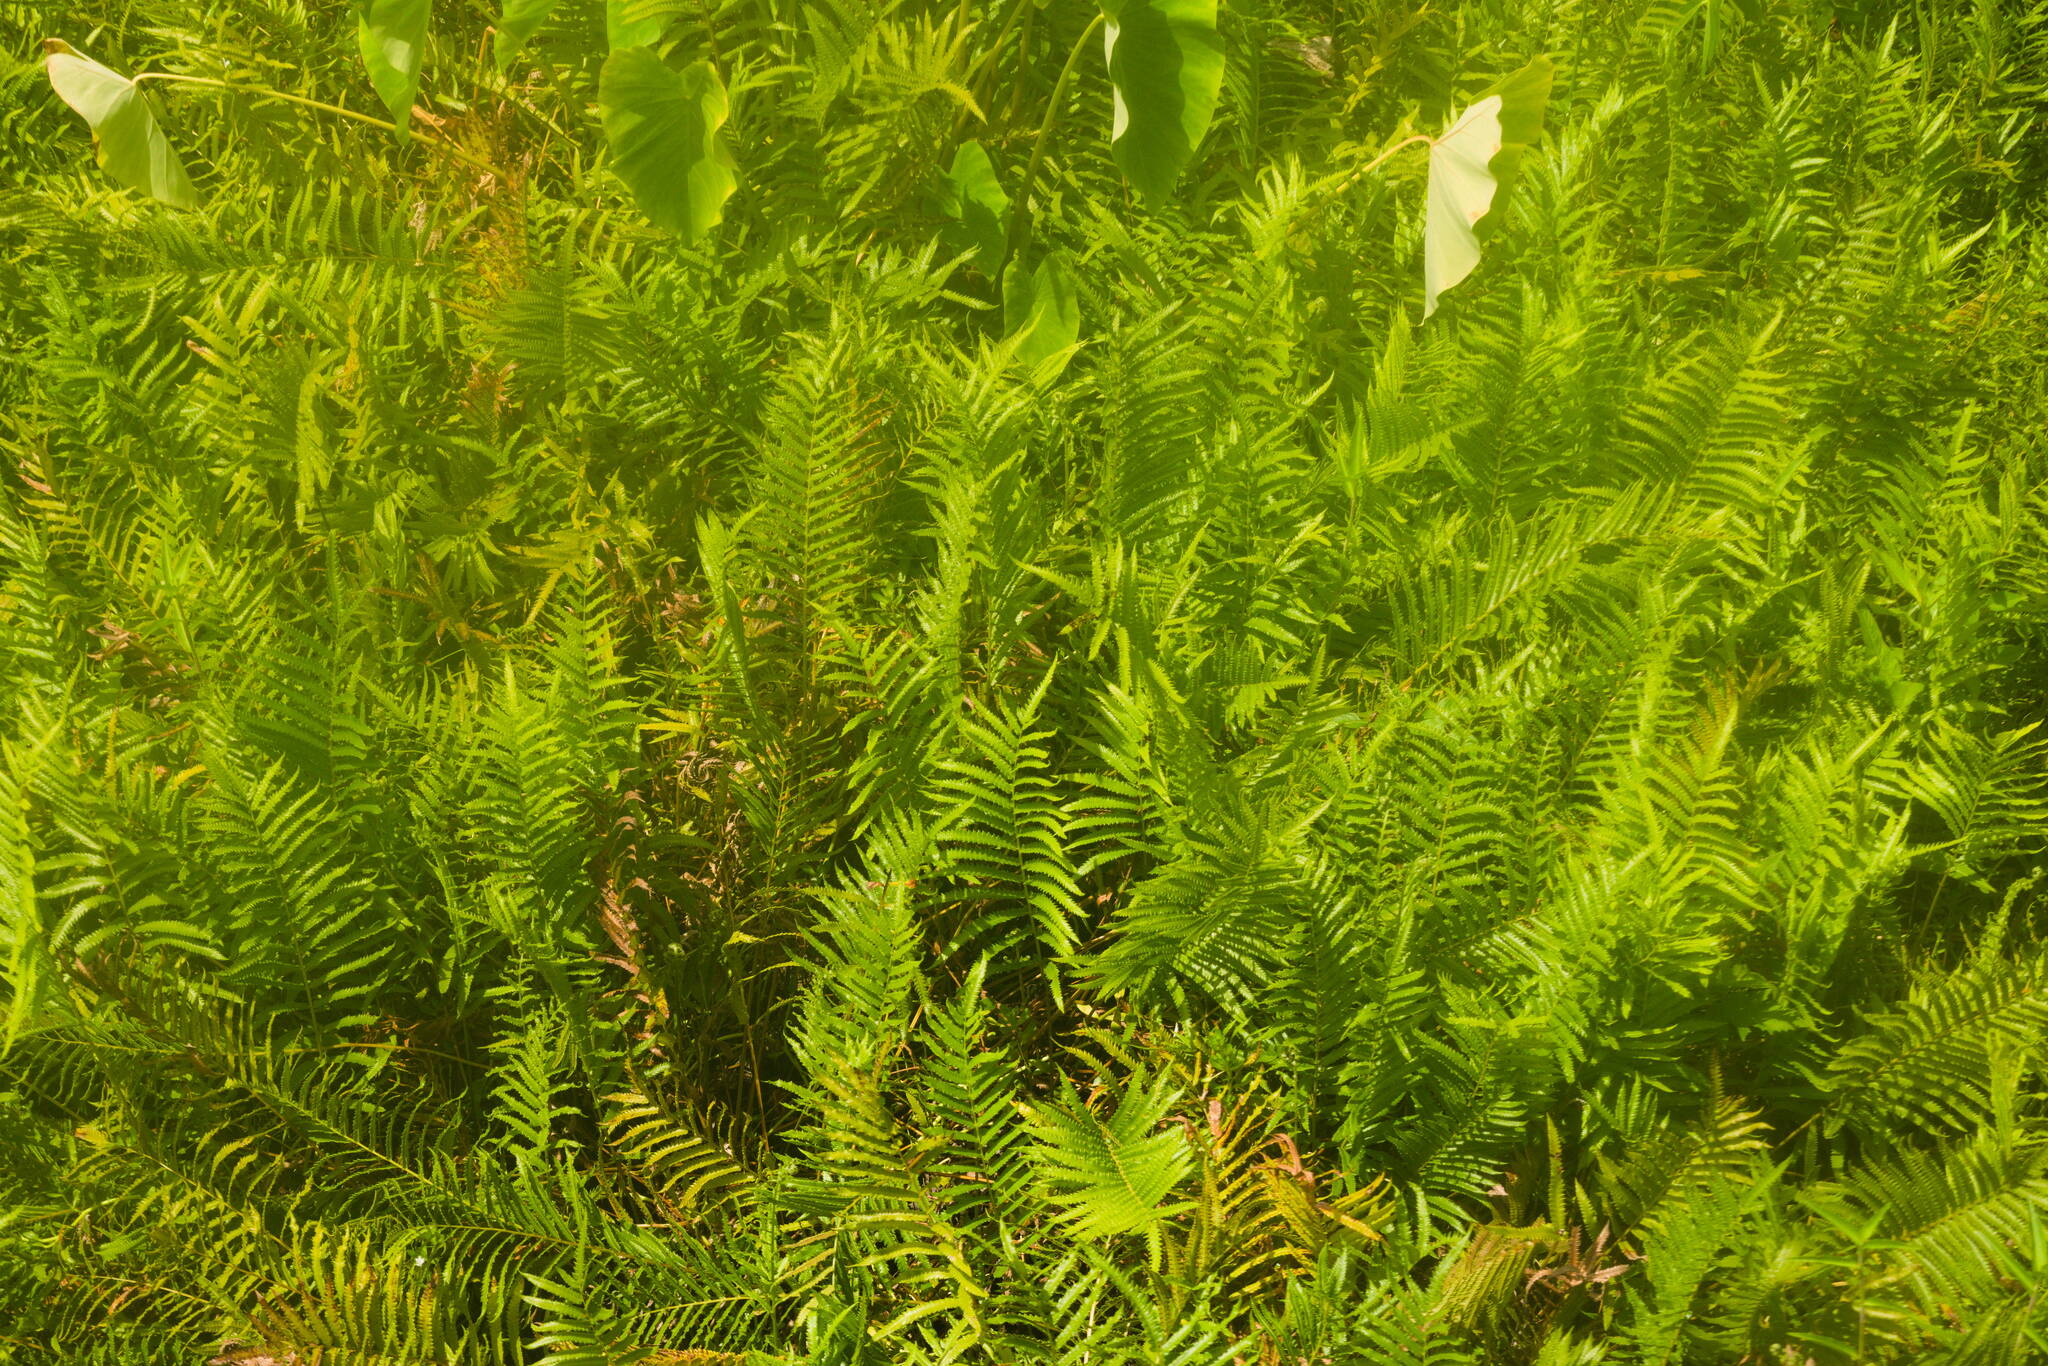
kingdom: Plantae
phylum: Tracheophyta
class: Polypodiopsida
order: Polypodiales
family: Thelypteridaceae
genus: Cyclosorus
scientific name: Cyclosorus interruptus
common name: Neke fern
